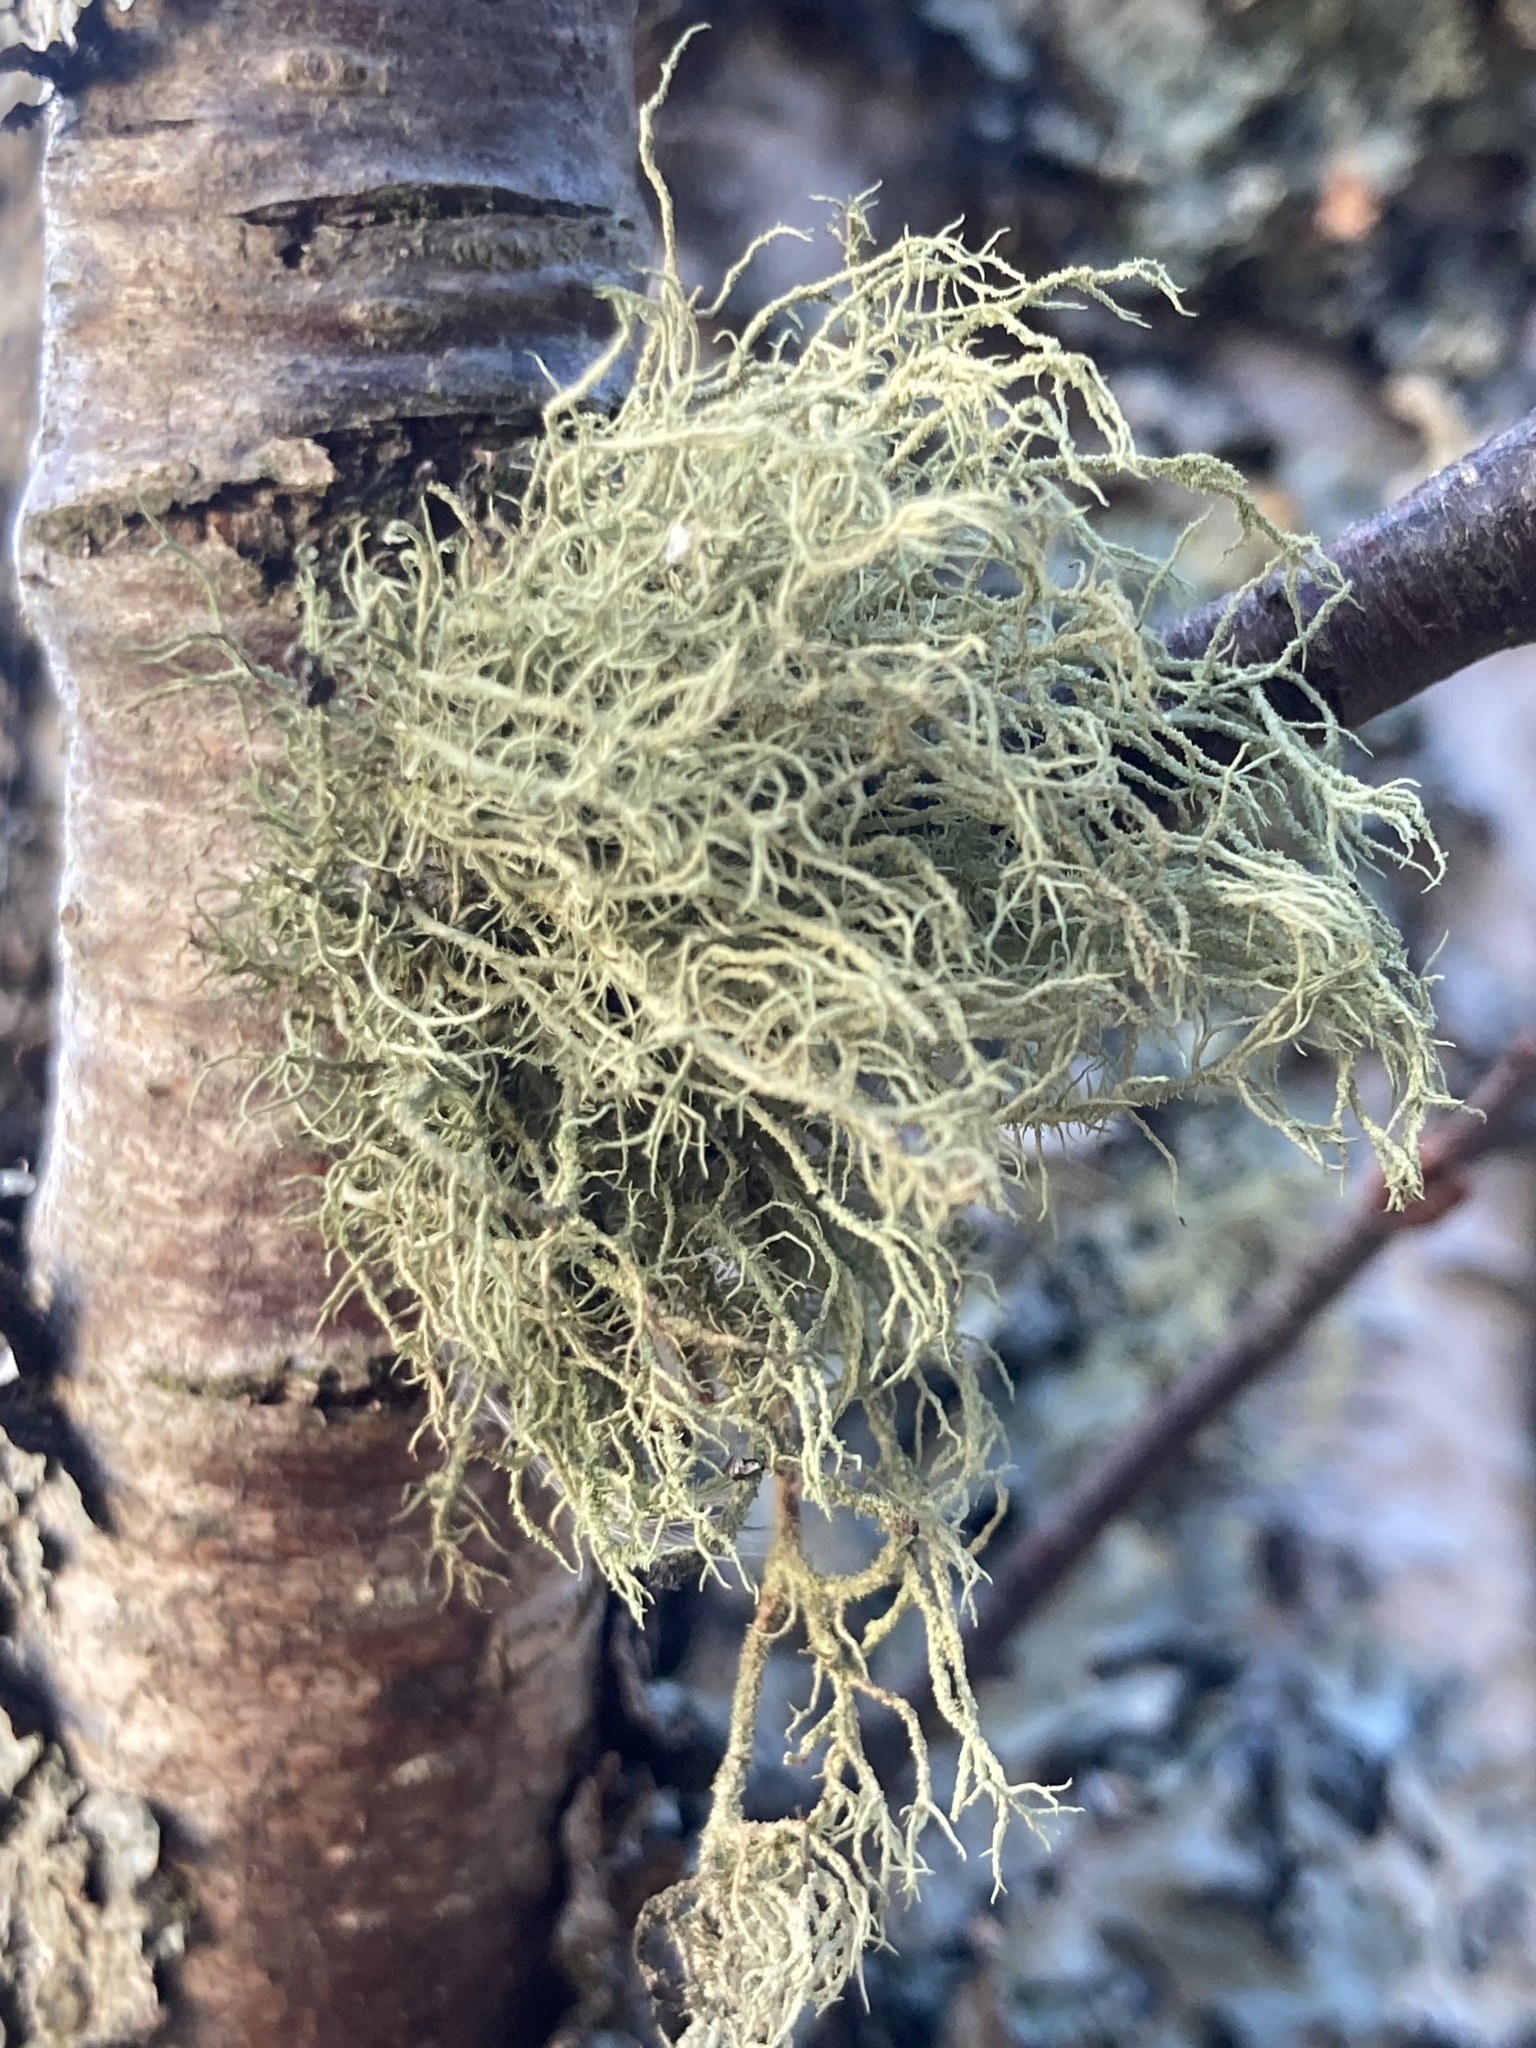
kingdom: Fungi
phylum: Ascomycota
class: Lecanoromycetes
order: Lecanorales
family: Parmeliaceae
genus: Usnea
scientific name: Usnea
